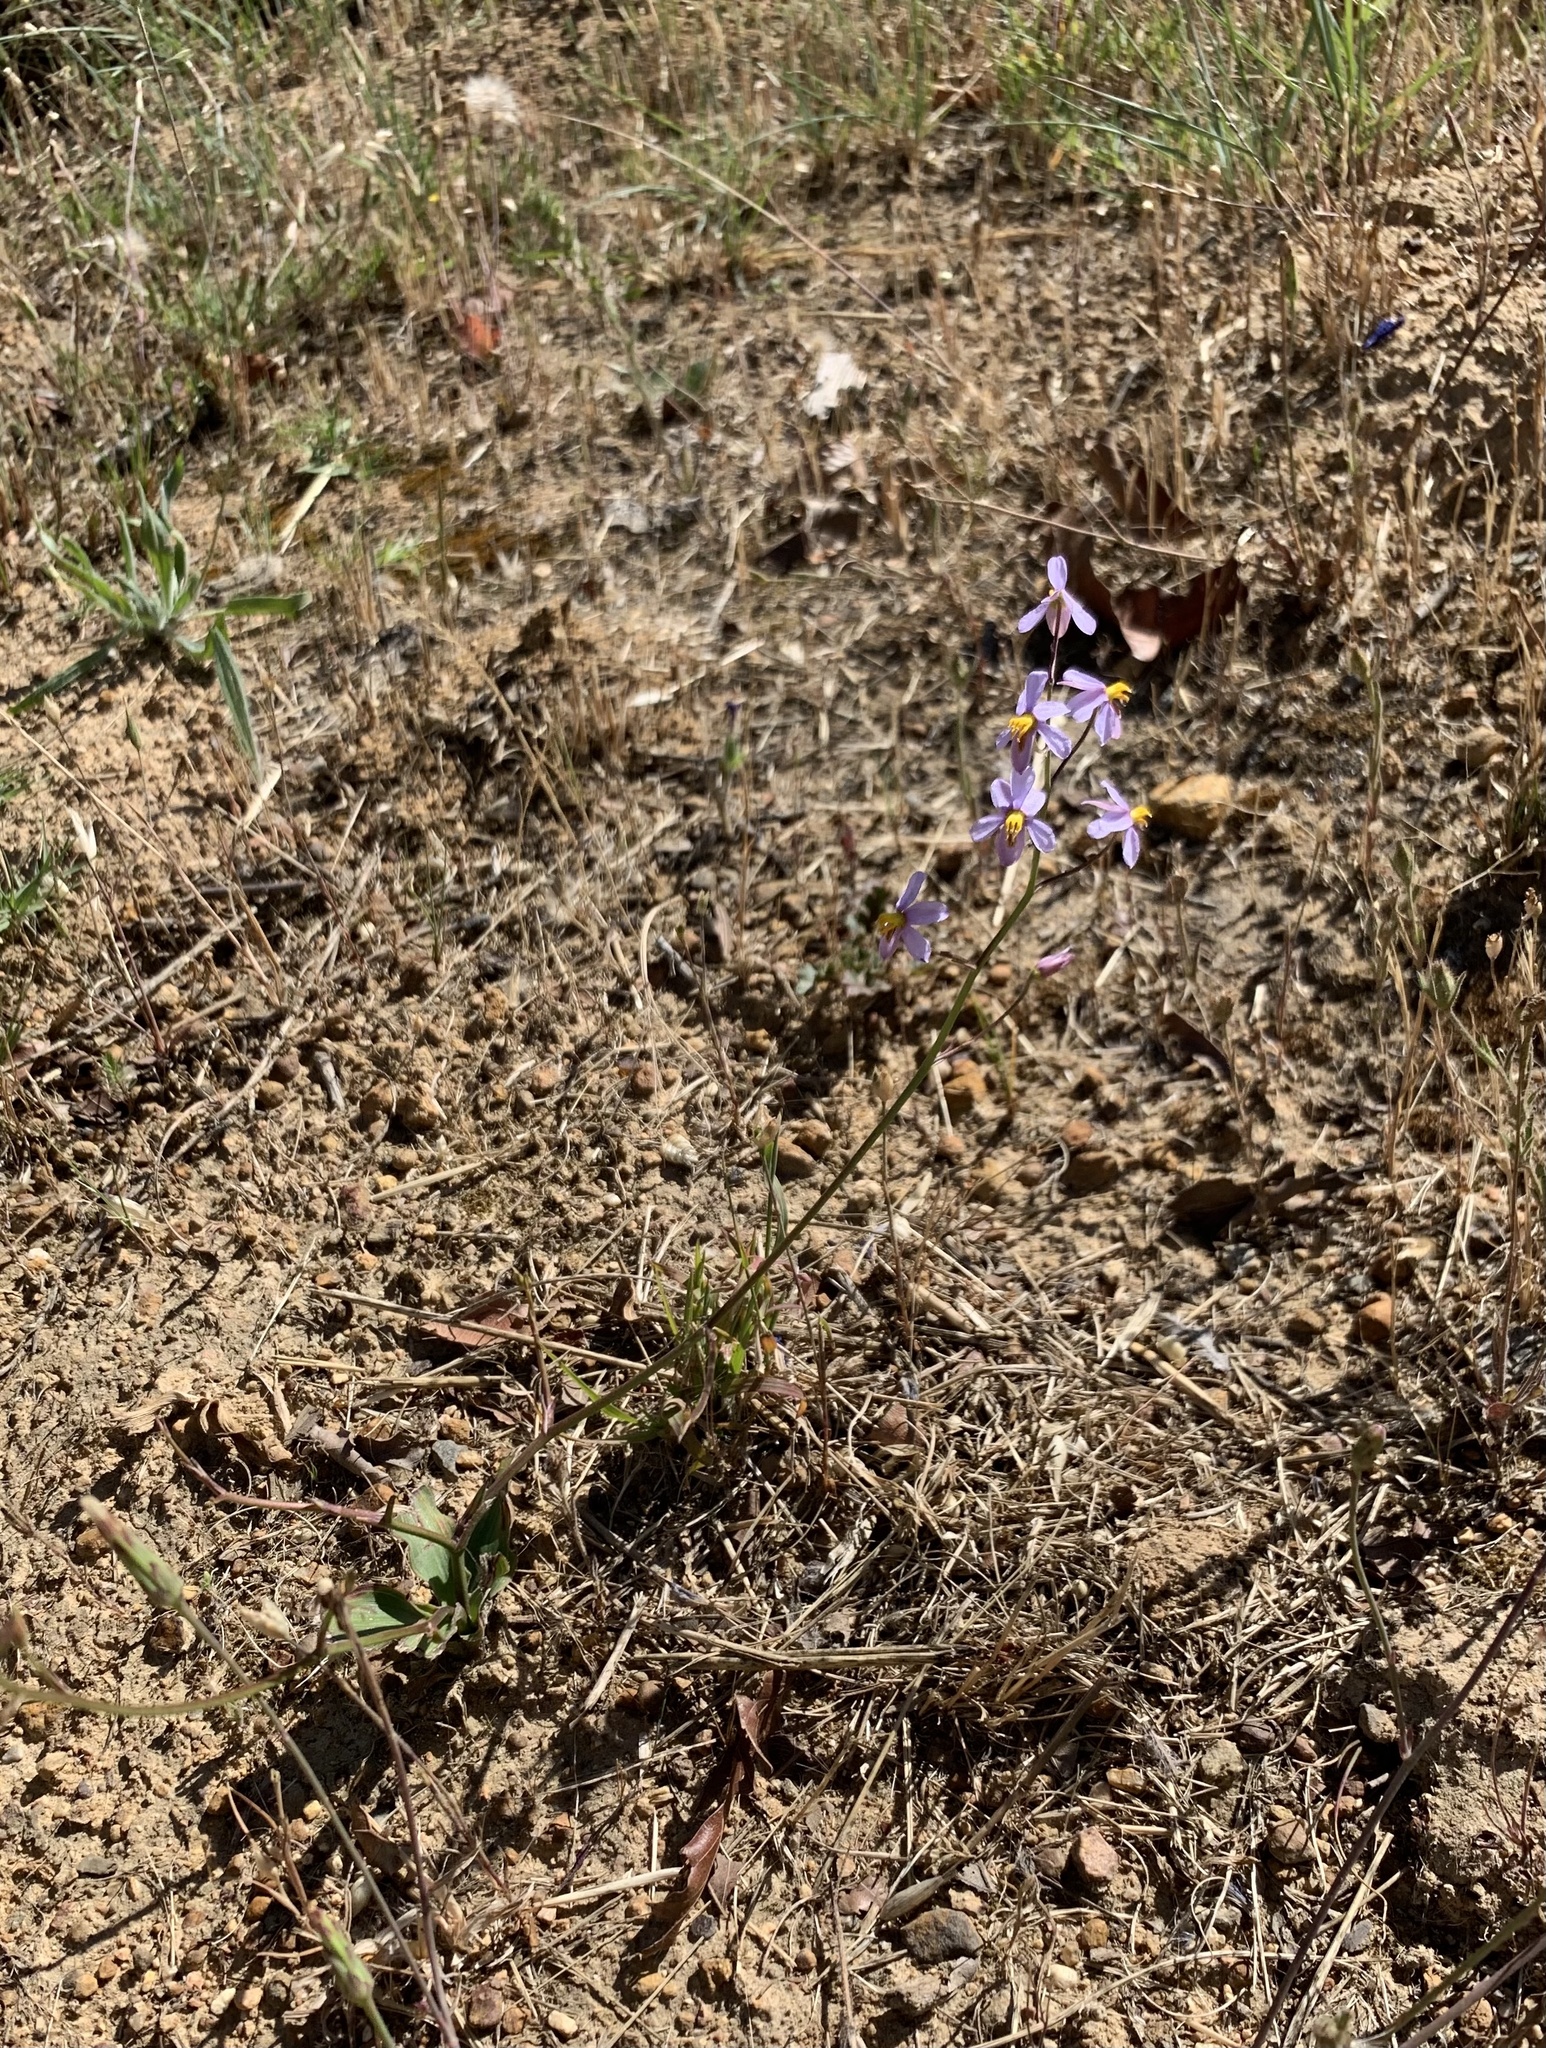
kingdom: Plantae
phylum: Tracheophyta
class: Liliopsida
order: Asparagales
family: Tecophilaeaceae
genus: Cyanella
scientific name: Cyanella hyacinthoides
